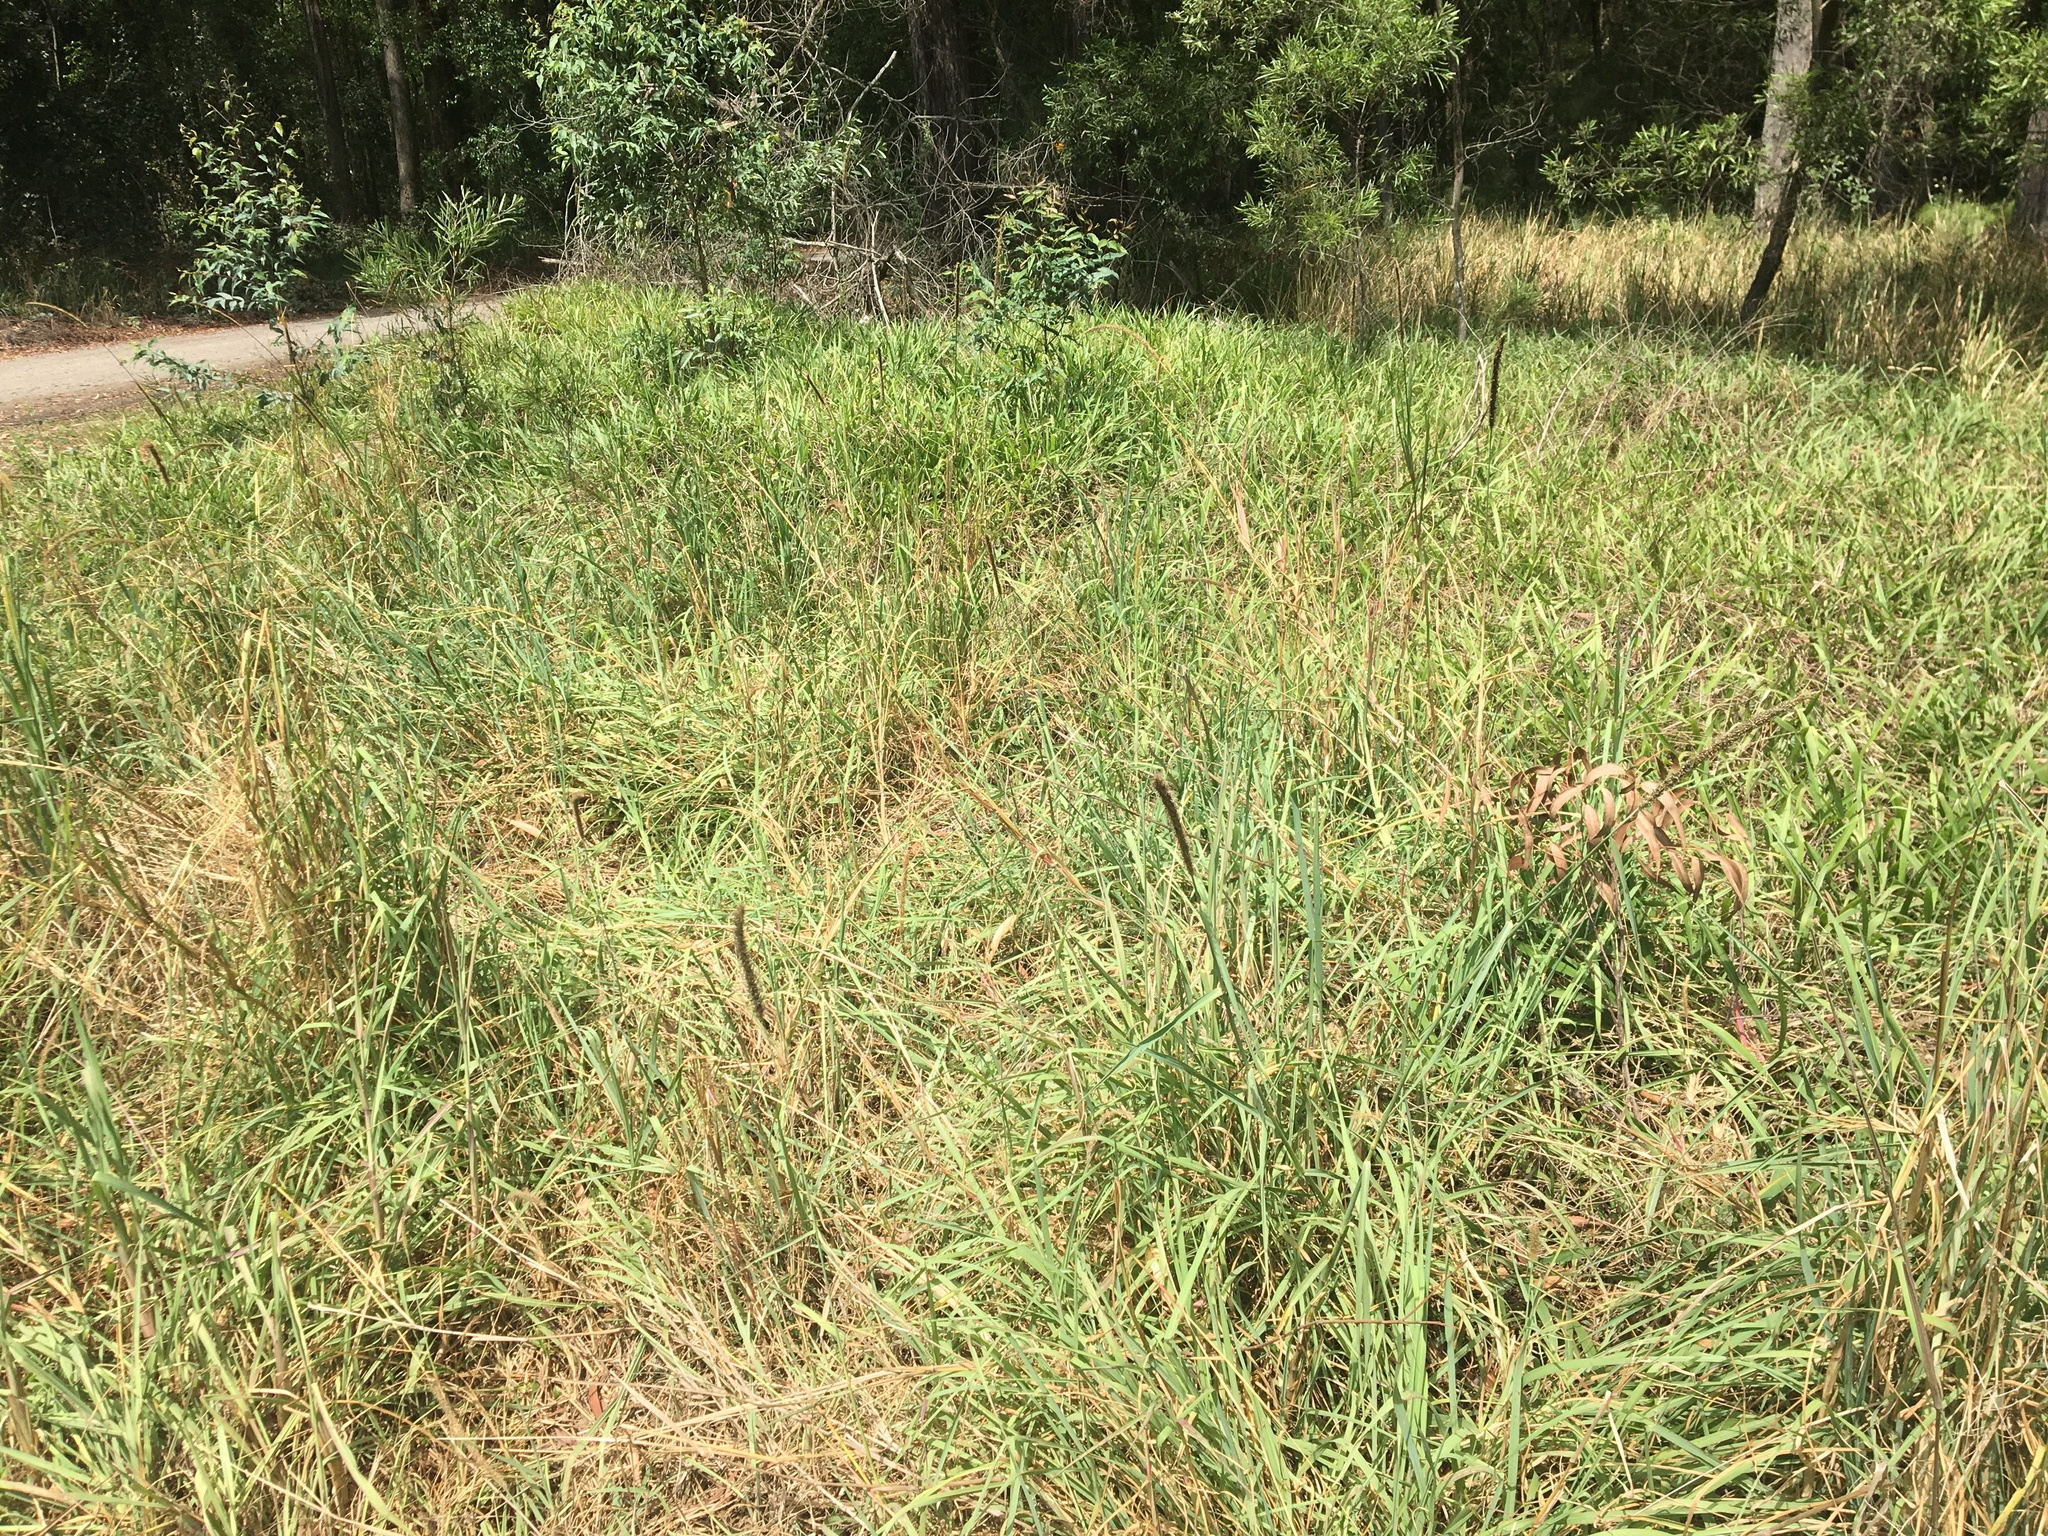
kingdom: Plantae
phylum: Tracheophyta
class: Liliopsida
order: Poales
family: Poaceae
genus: Setaria
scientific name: Setaria sphacelata
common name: African bristlegrass
